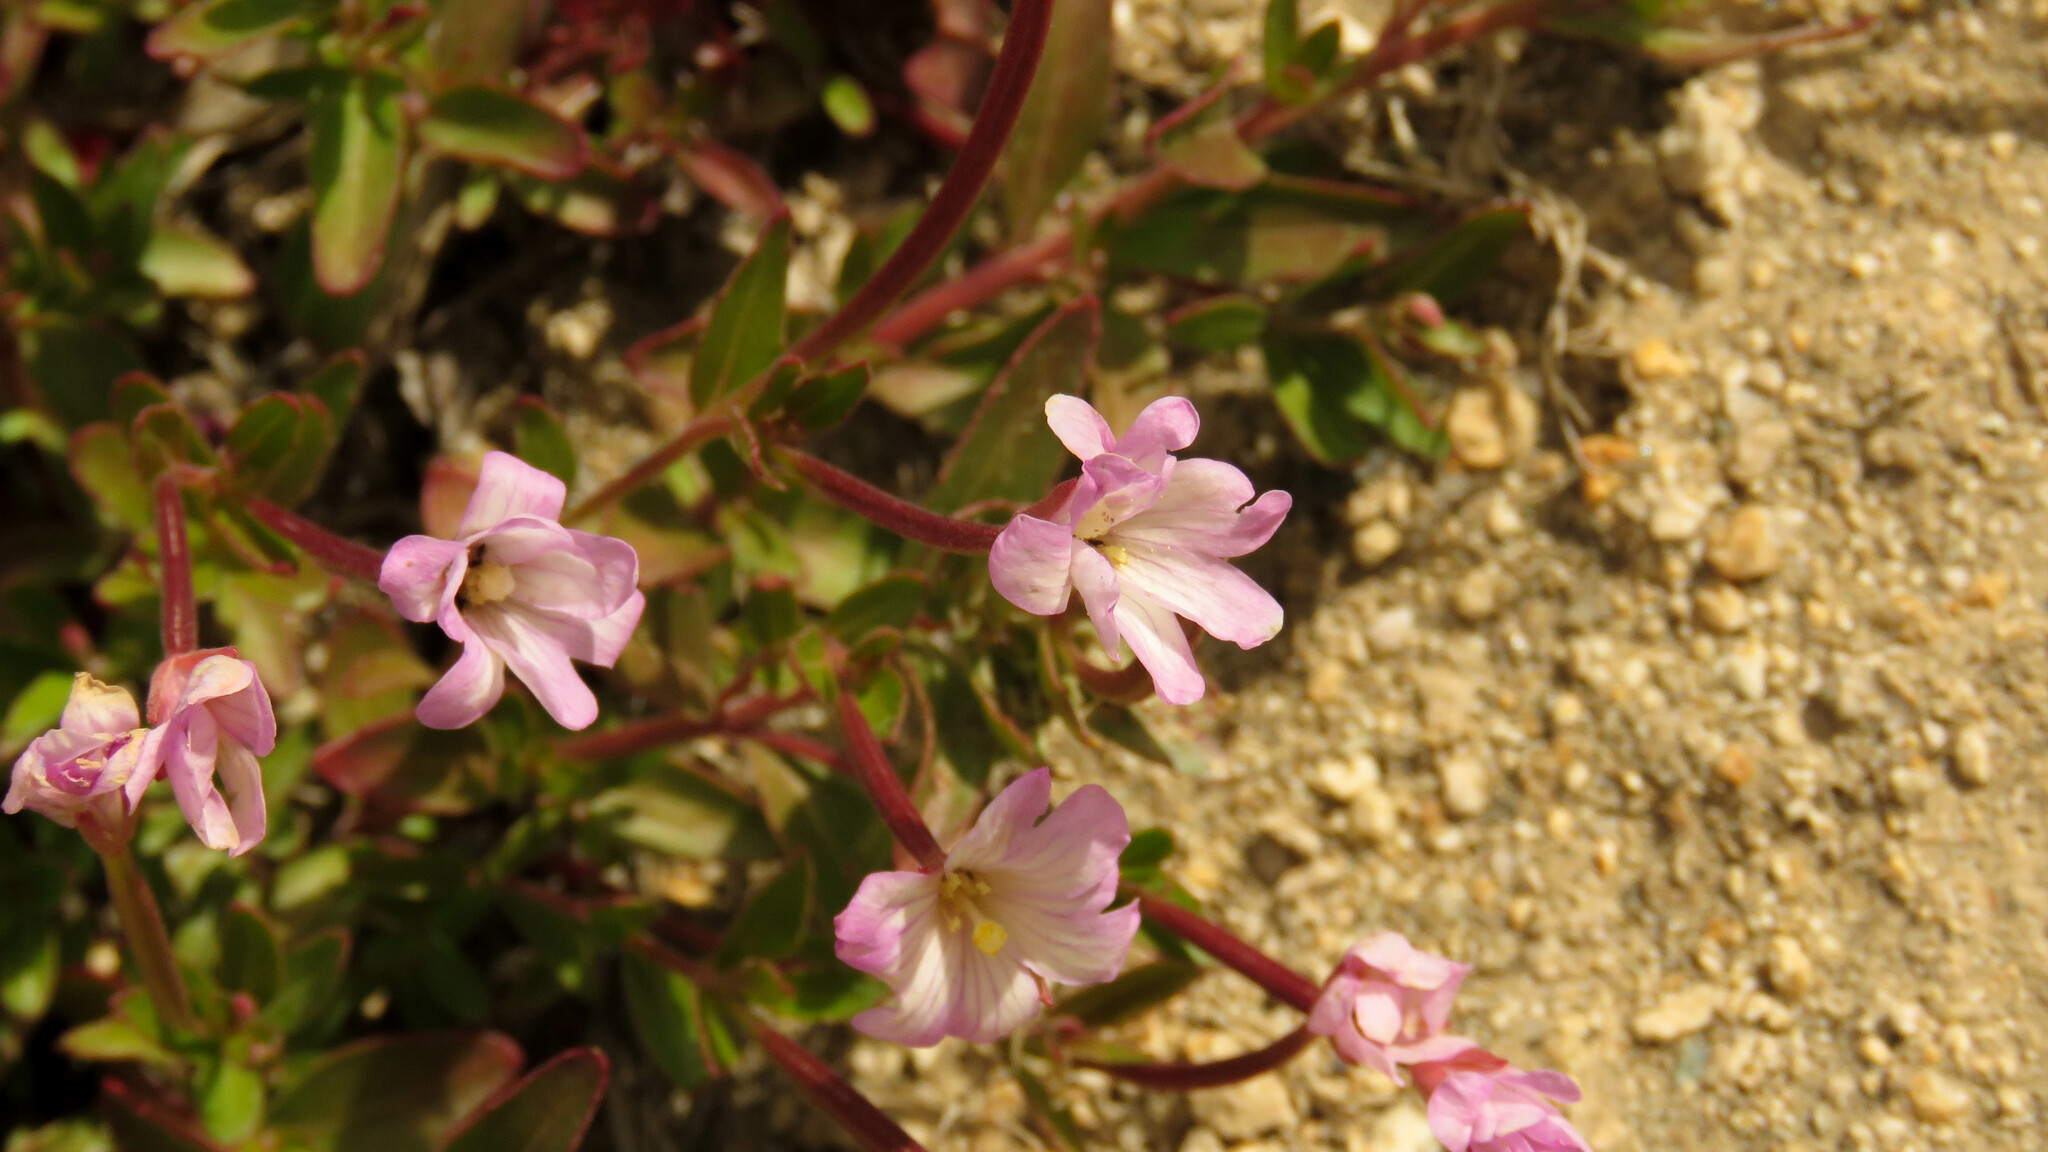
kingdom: Plantae
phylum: Tracheophyta
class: Magnoliopsida
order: Myrtales
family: Onagraceae
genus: Epilobium
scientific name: Epilobium australe
